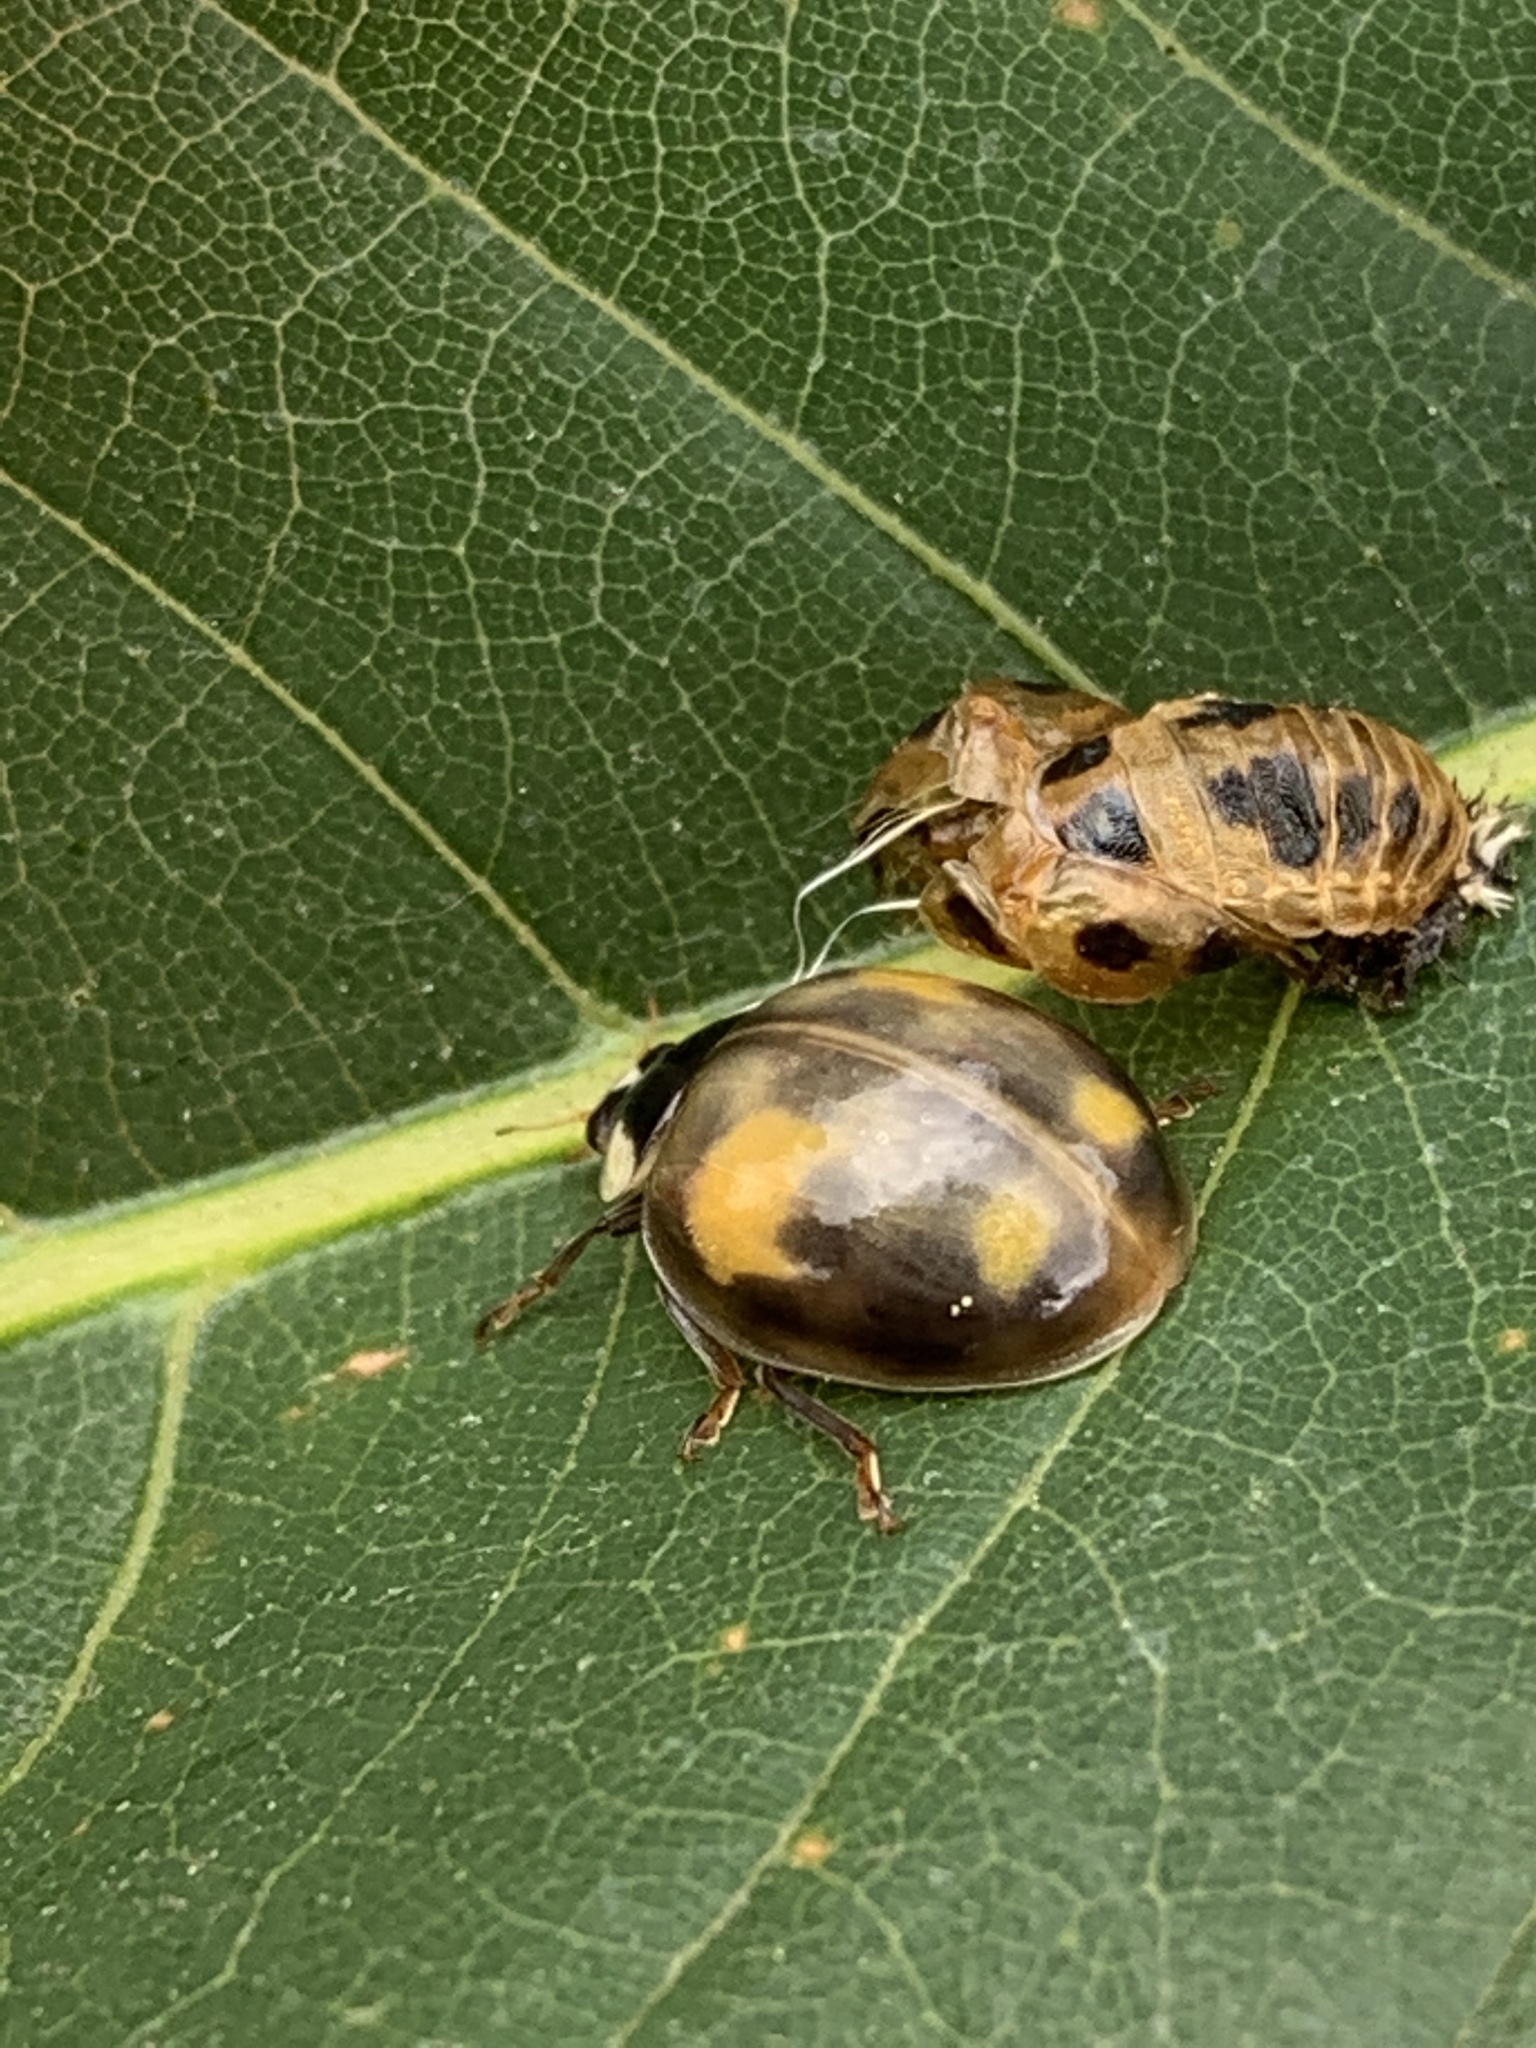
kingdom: Animalia
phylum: Arthropoda
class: Insecta
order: Coleoptera
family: Coccinellidae
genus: Harmonia
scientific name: Harmonia axyridis
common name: Harlequin ladybird
